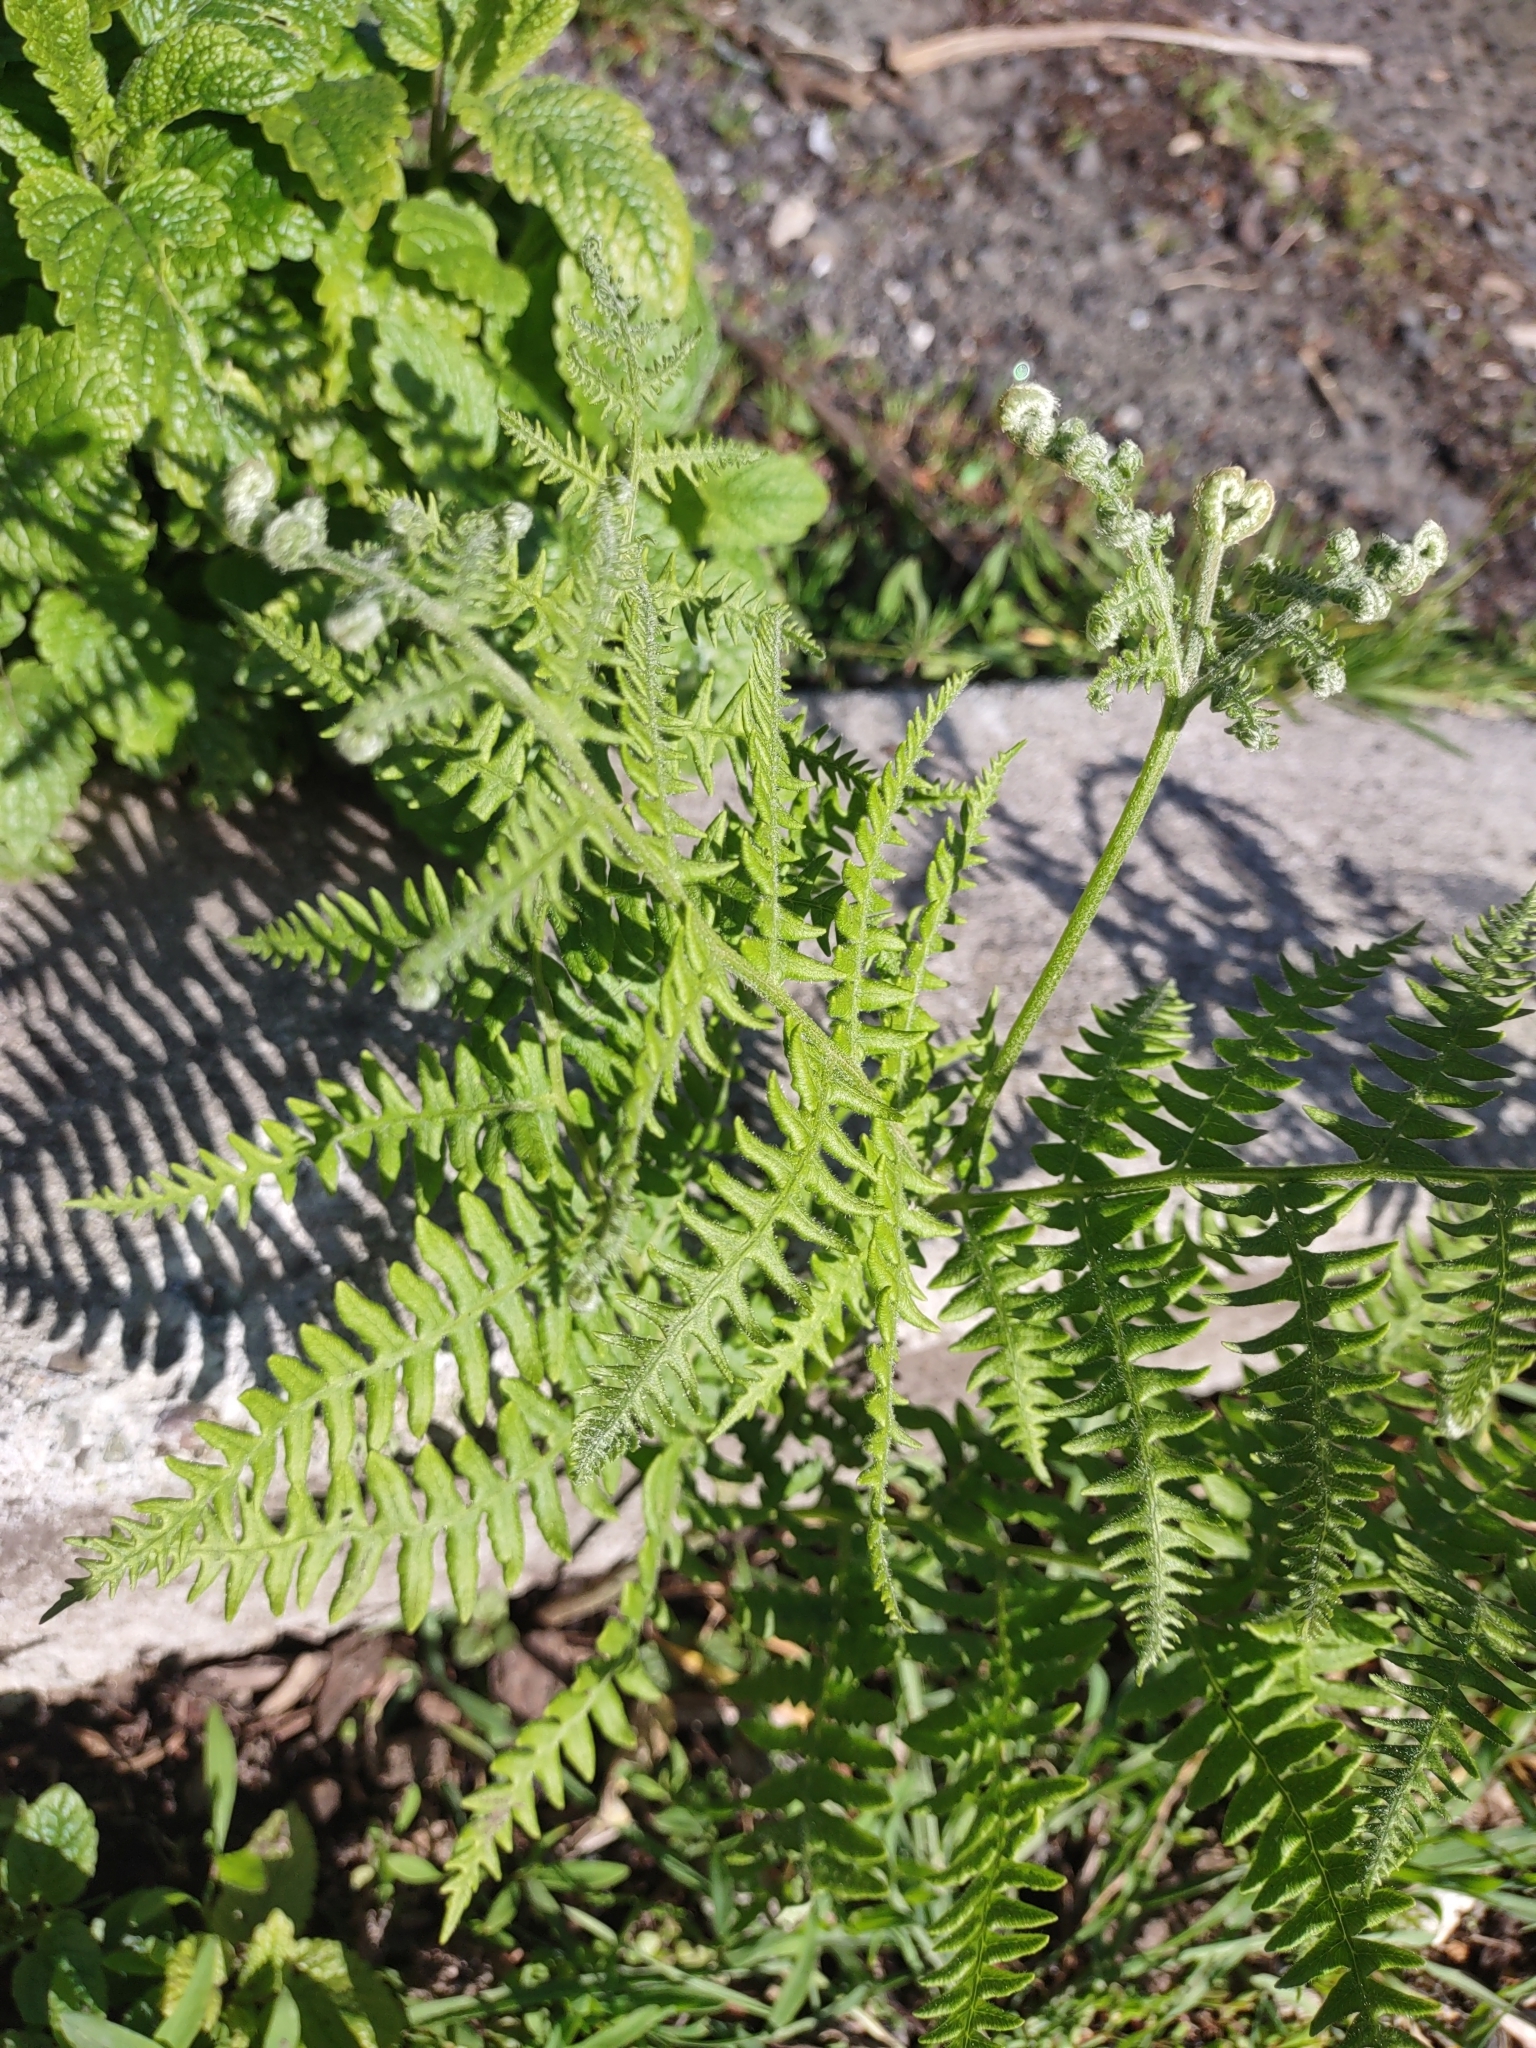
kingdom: Plantae
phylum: Tracheophyta
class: Polypodiopsida
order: Polypodiales
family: Dennstaedtiaceae
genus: Pteridium
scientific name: Pteridium aquilinum
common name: Bracken
